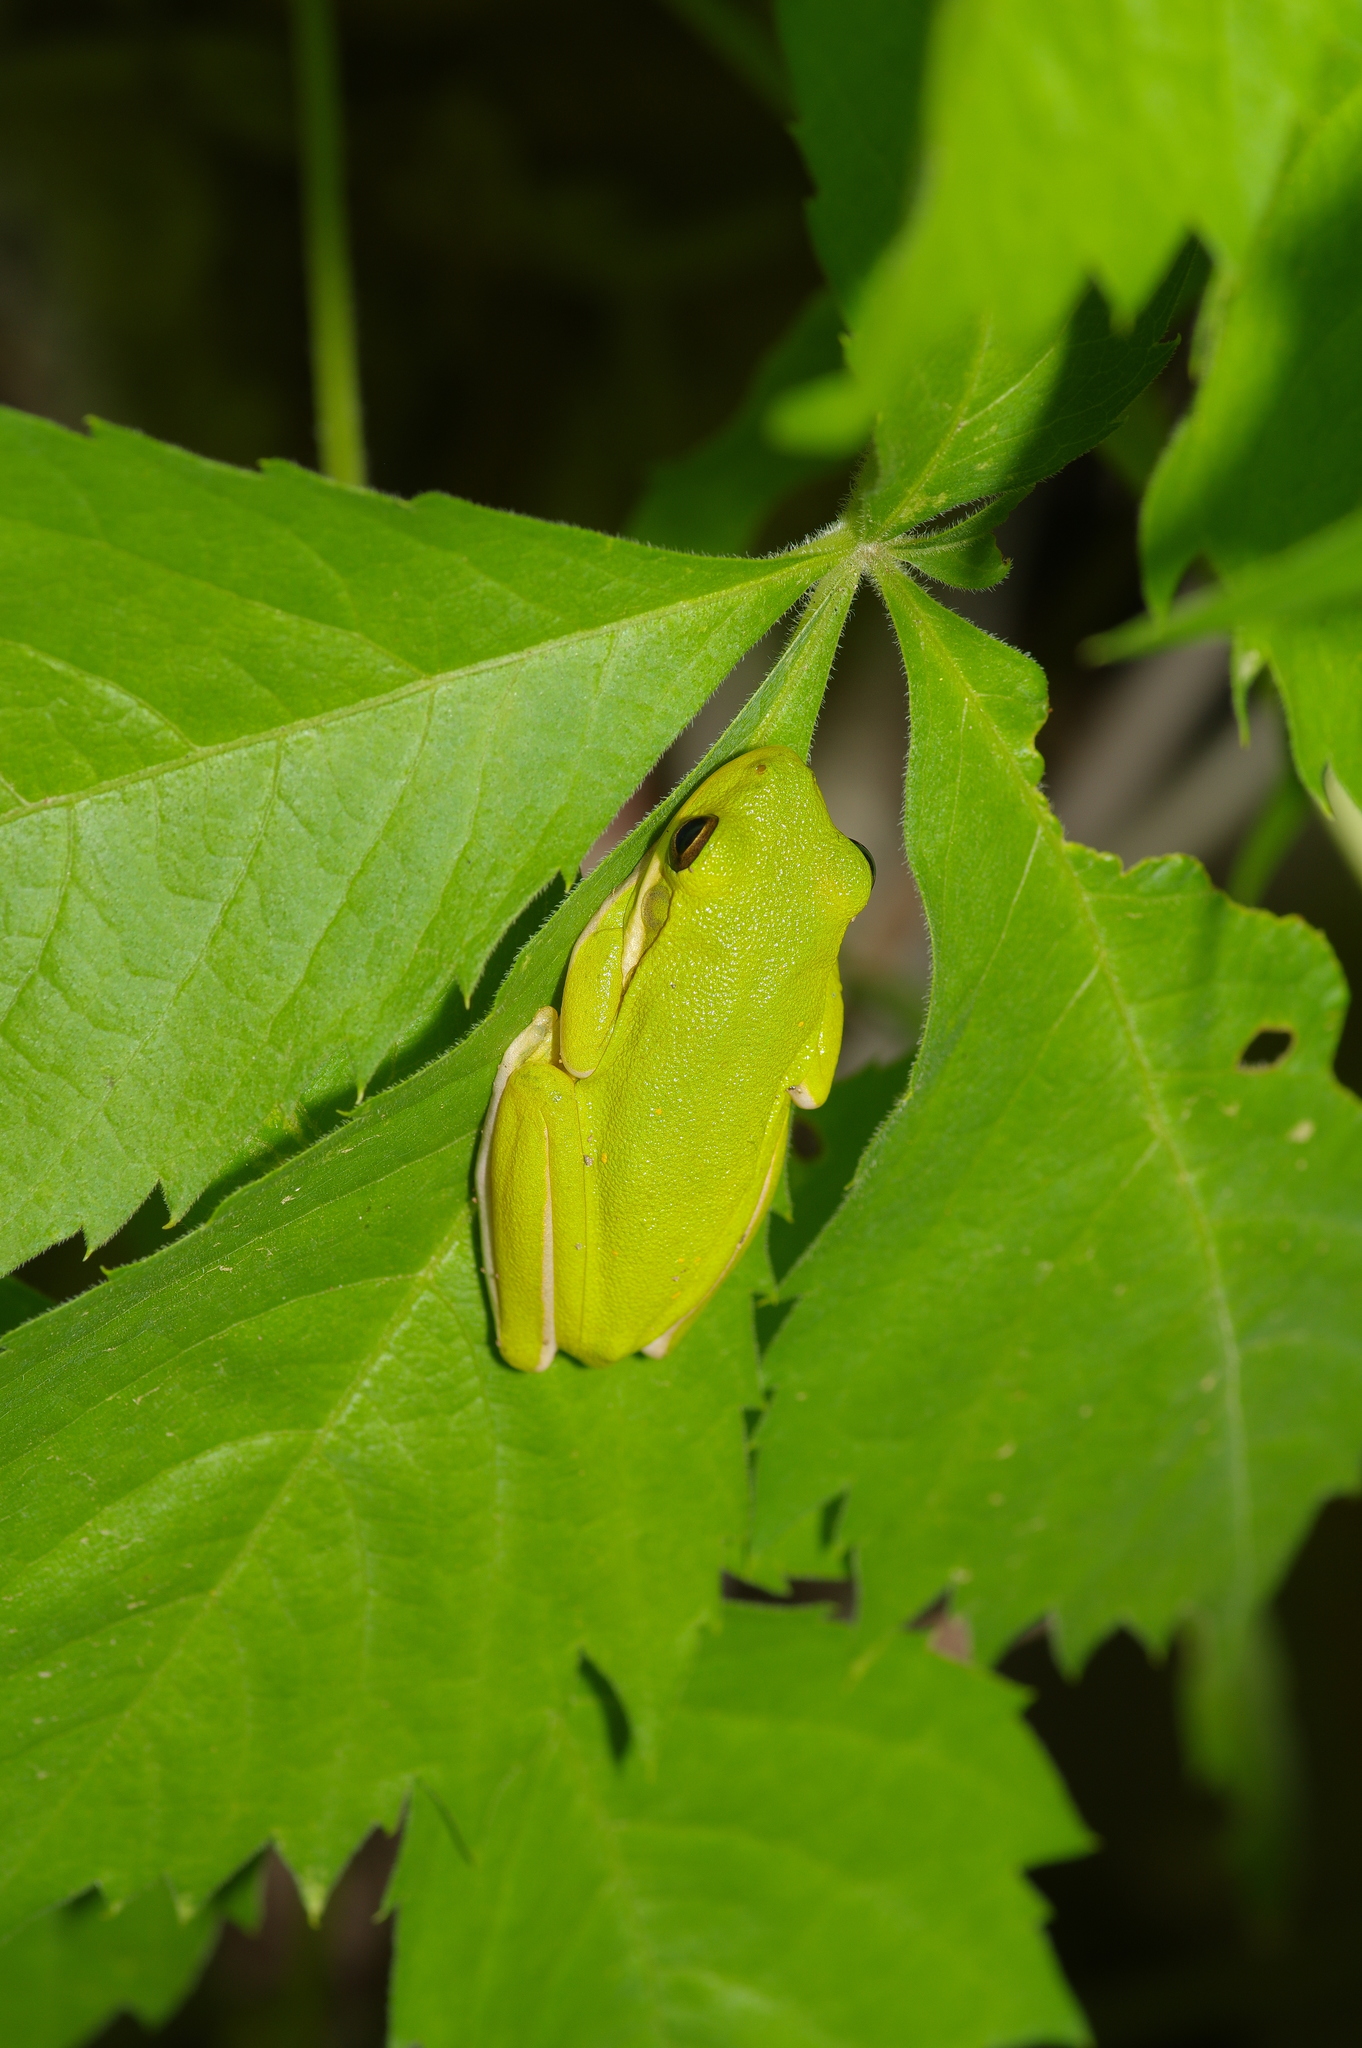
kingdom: Animalia
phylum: Chordata
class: Amphibia
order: Anura
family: Hylidae
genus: Dryophytes
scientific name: Dryophytes cinereus
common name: Green treefrog
